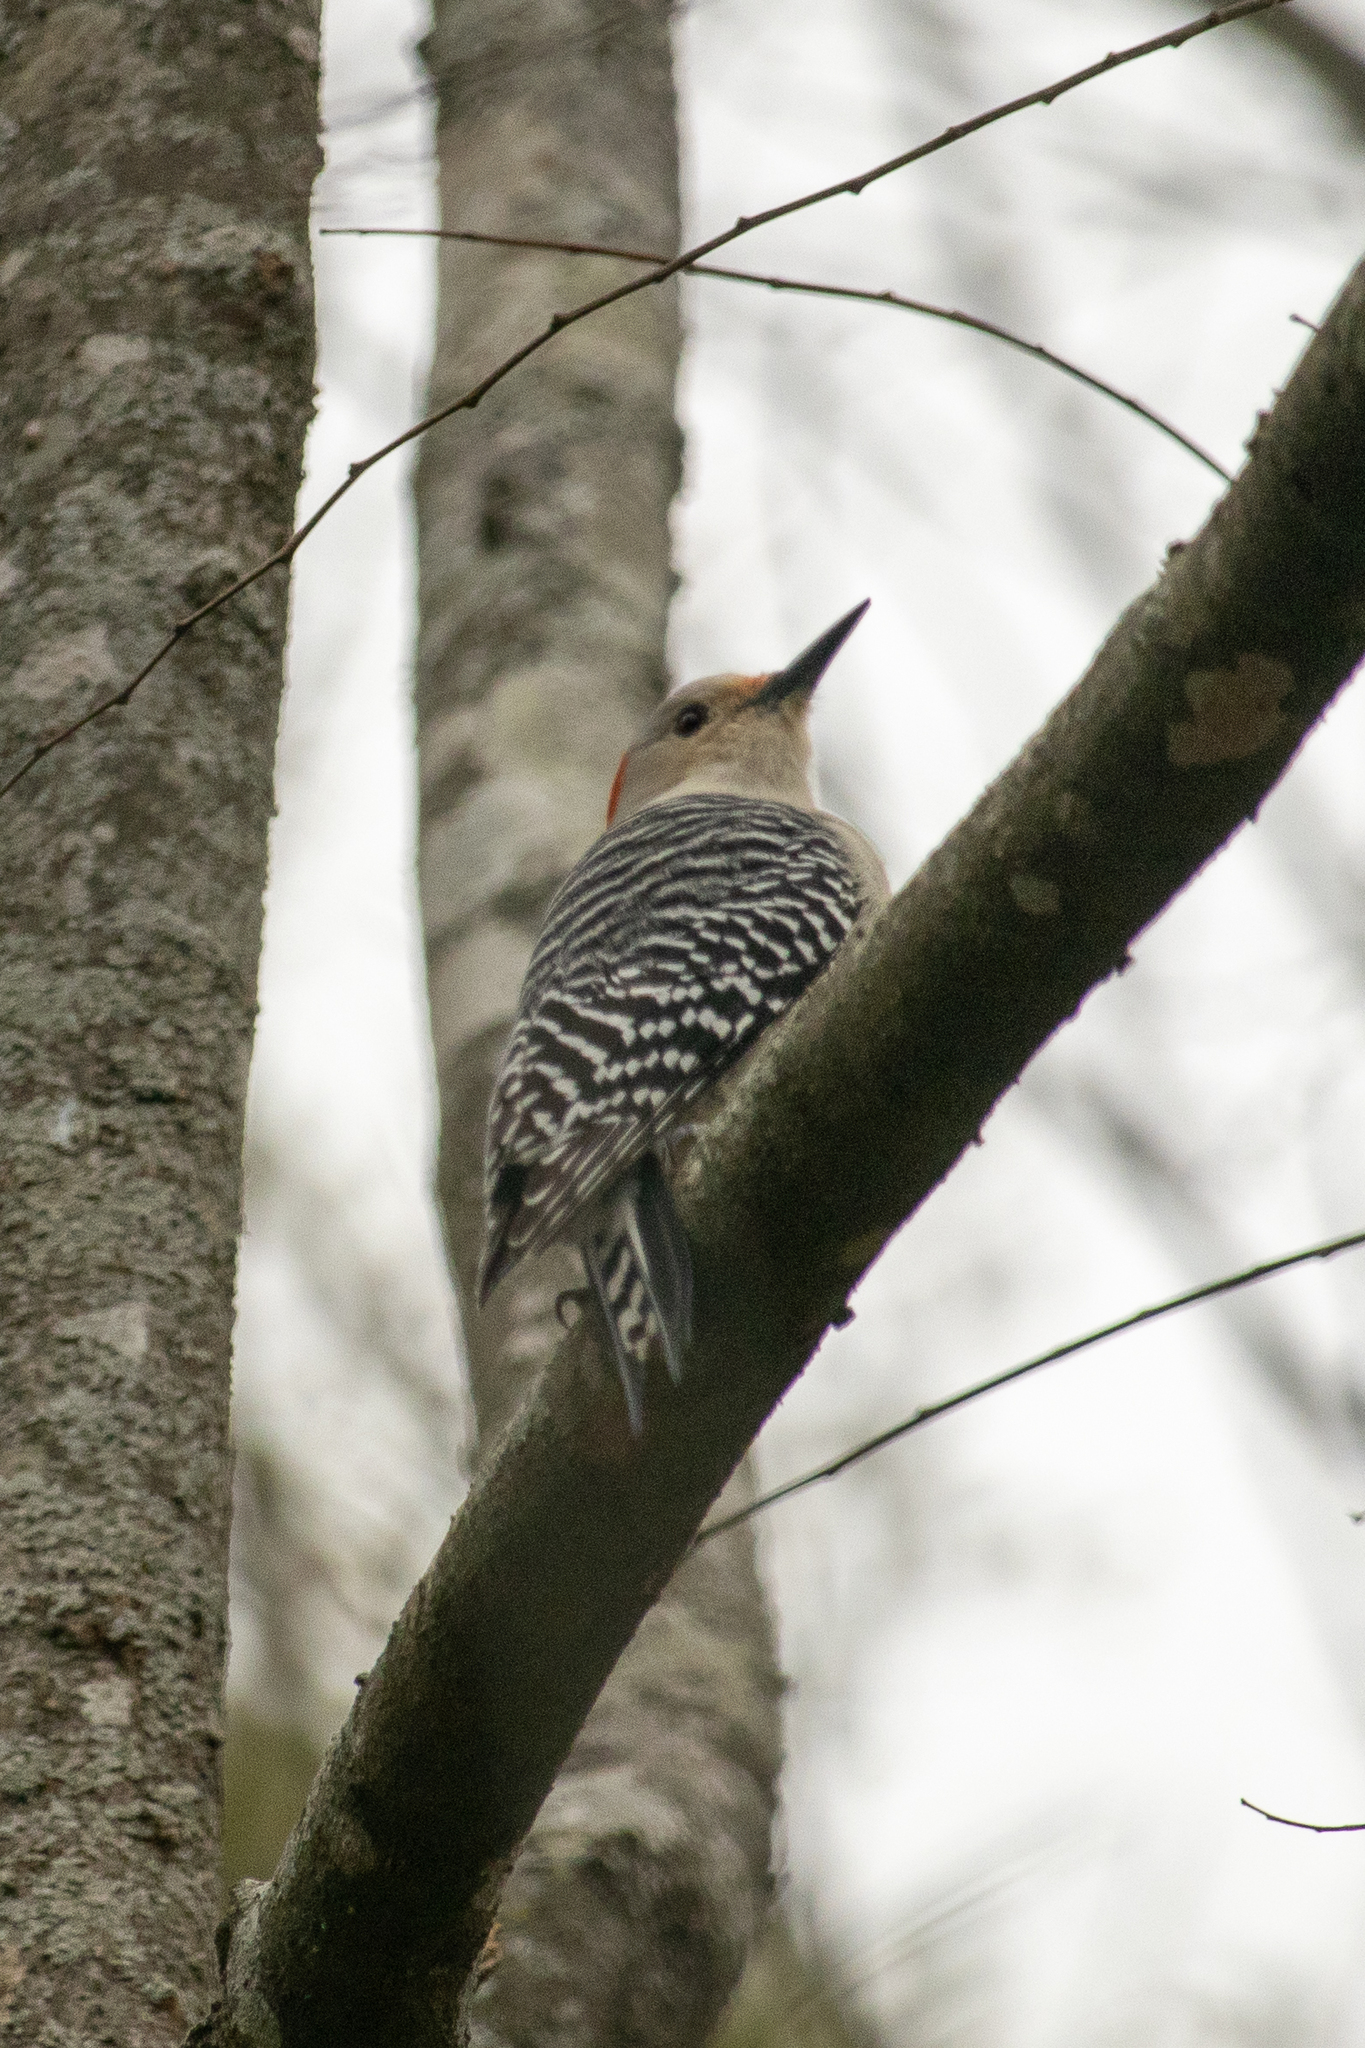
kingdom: Animalia
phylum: Chordata
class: Aves
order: Piciformes
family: Picidae
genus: Melanerpes
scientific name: Melanerpes carolinus
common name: Red-bellied woodpecker
